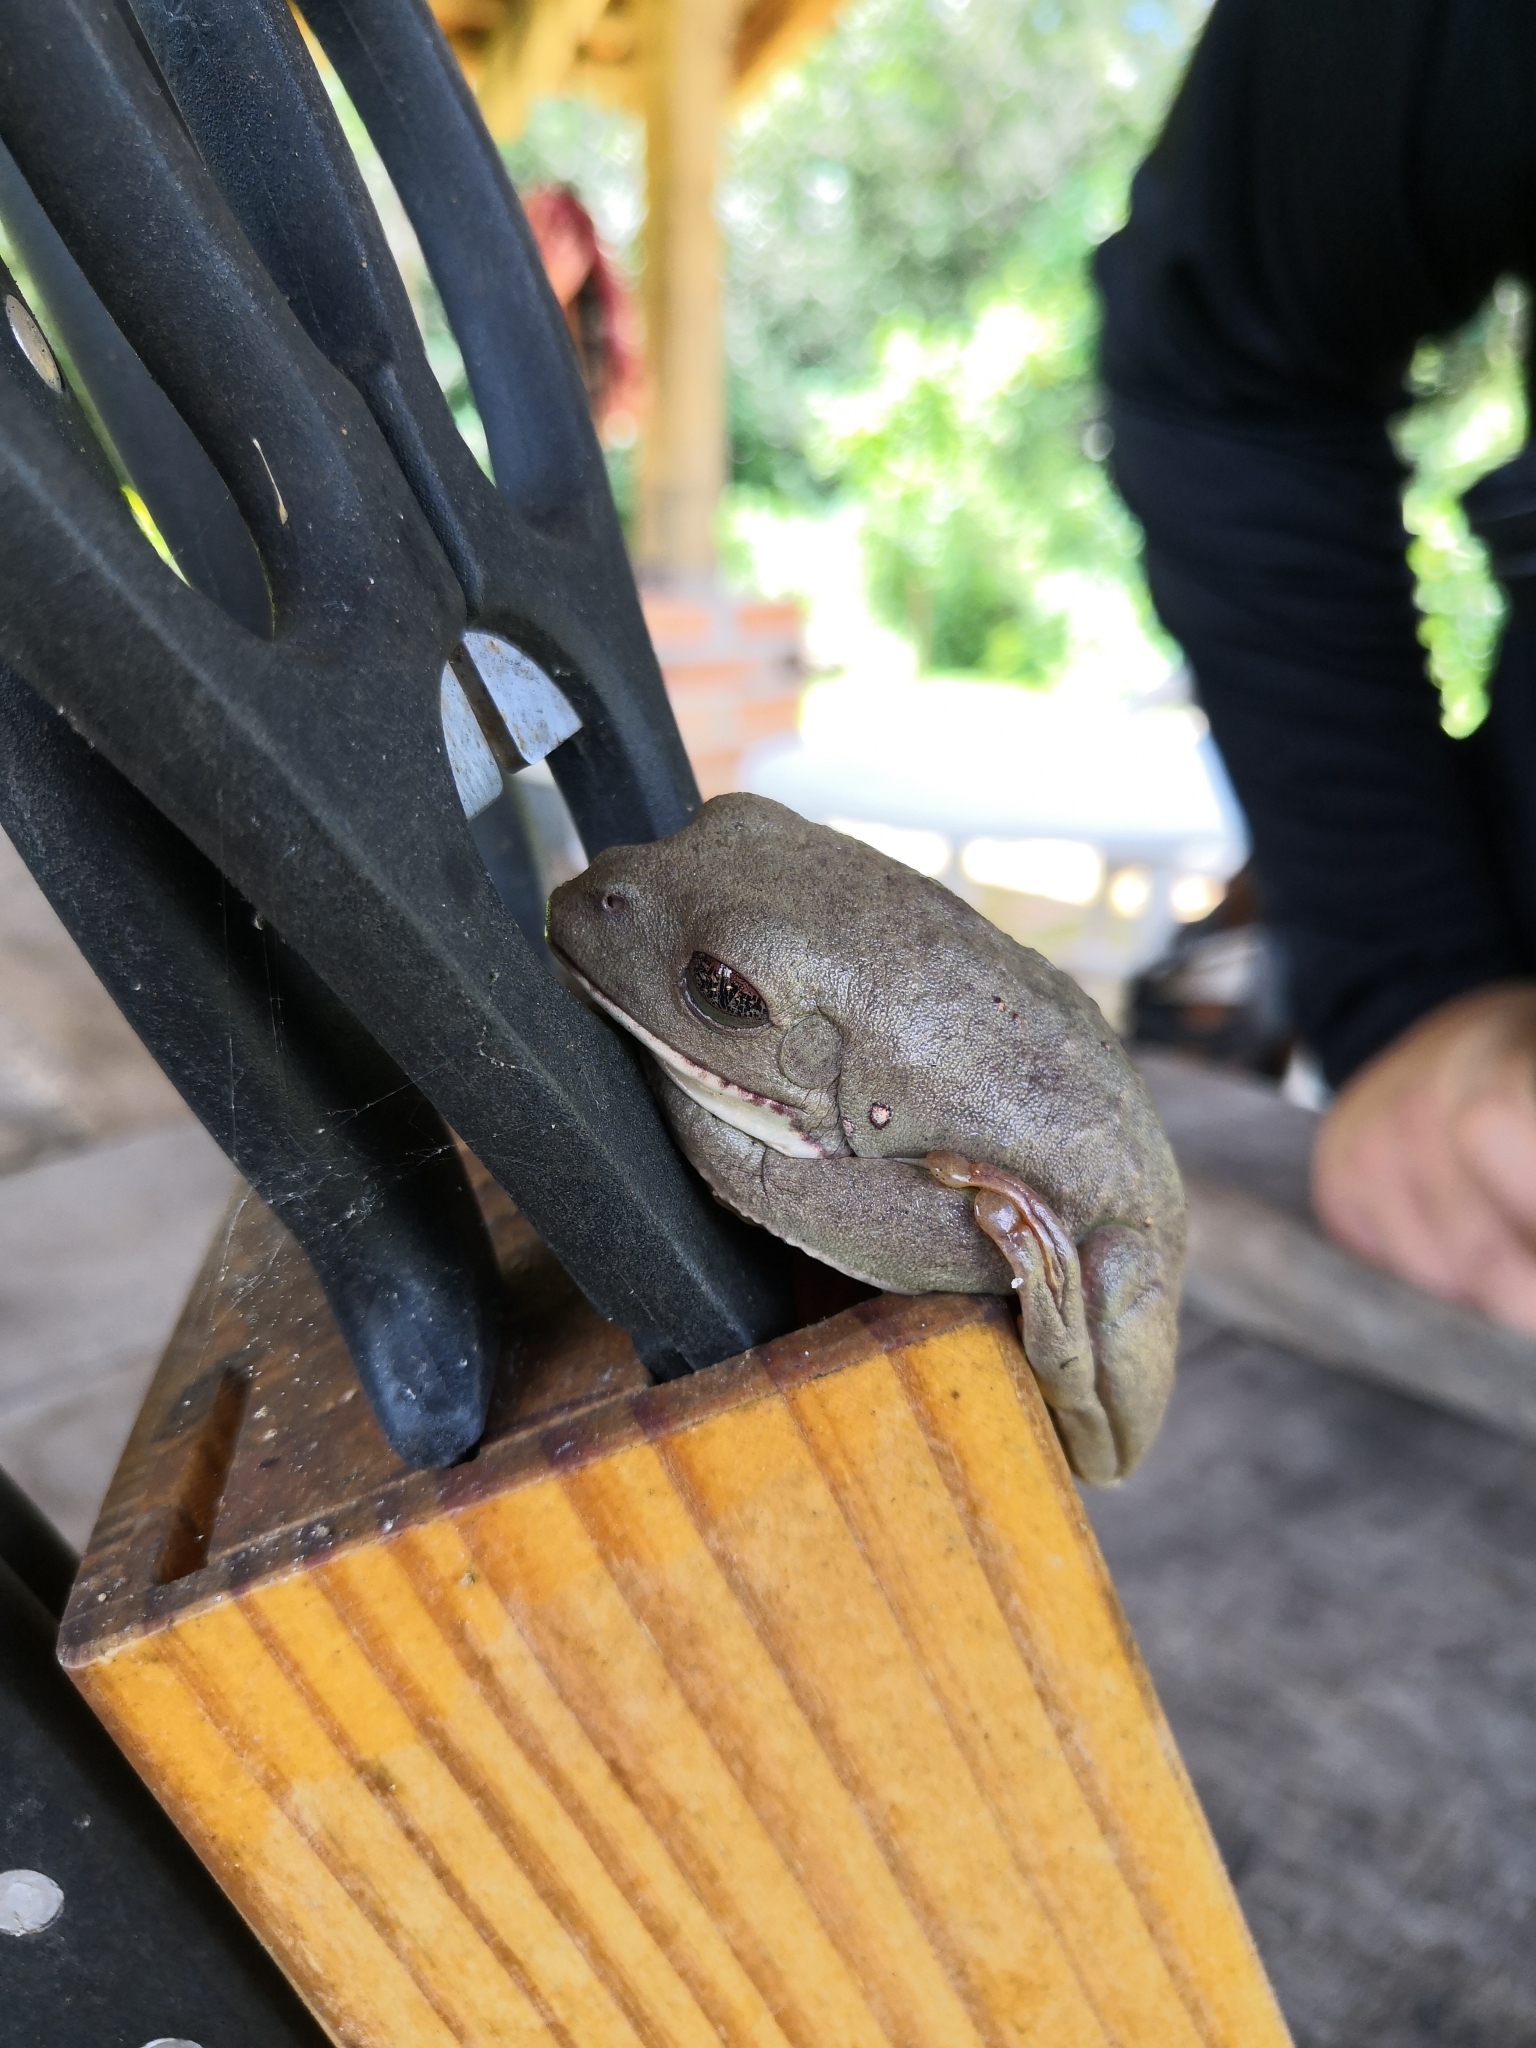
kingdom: Animalia
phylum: Chordata
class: Amphibia
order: Anura
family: Phyllomedusidae
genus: Agalychnis
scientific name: Agalychnis dacnicolor
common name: Mexican giant tree frog
